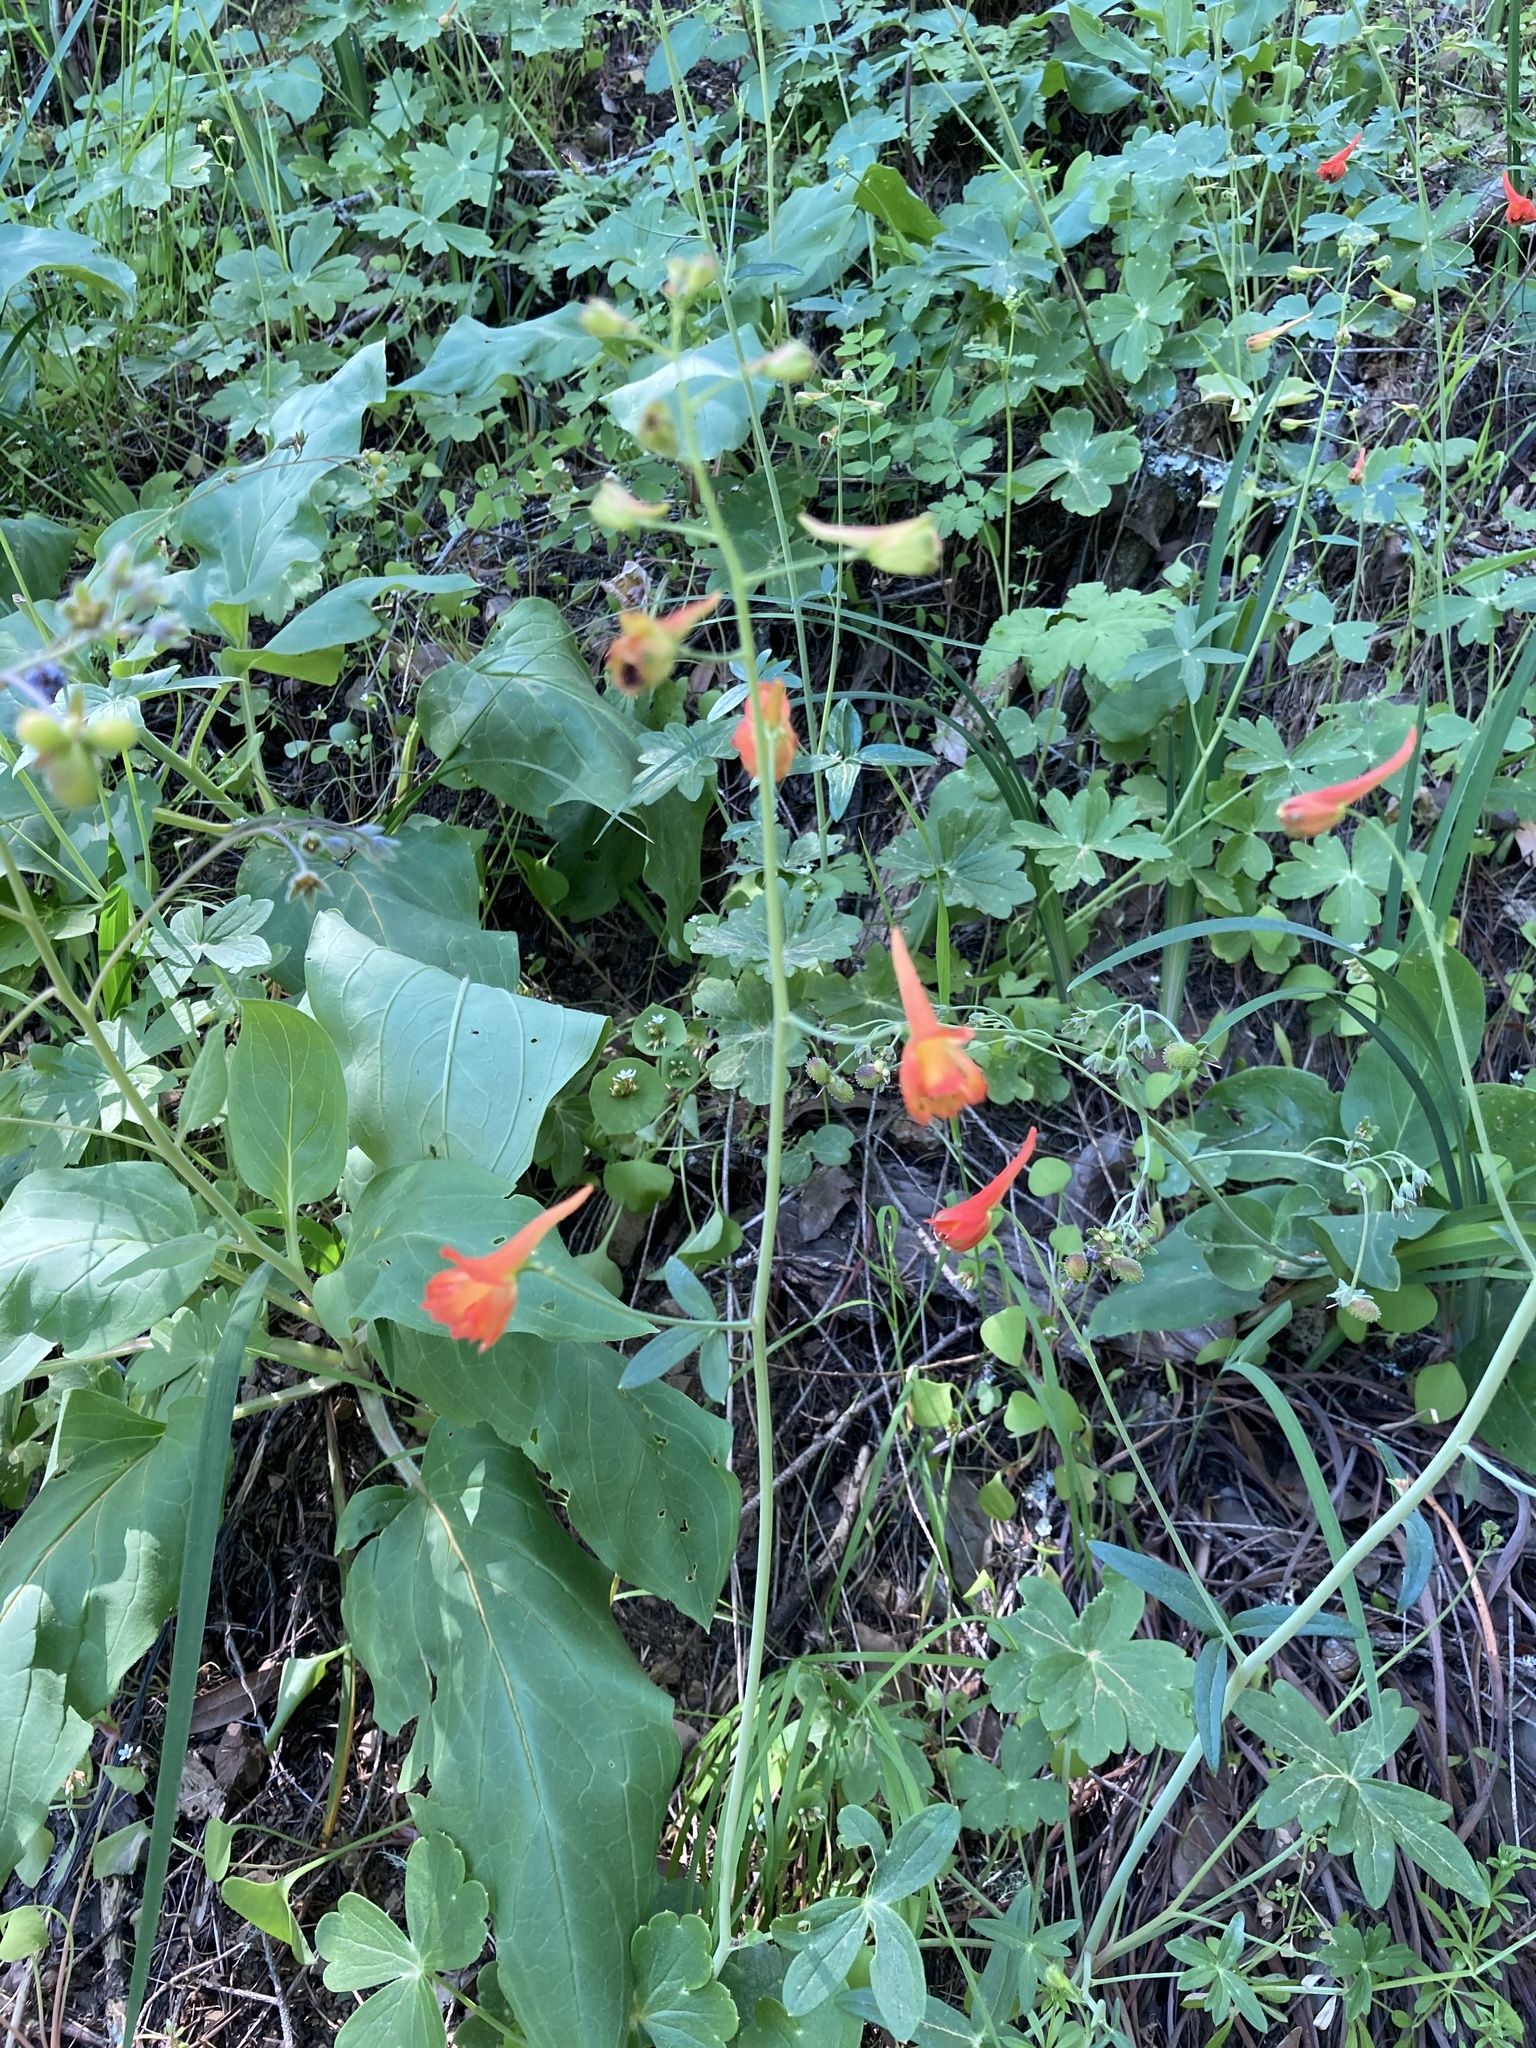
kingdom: Plantae
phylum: Tracheophyta
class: Magnoliopsida
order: Ranunculales
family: Ranunculaceae
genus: Delphinium
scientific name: Delphinium nudicaule
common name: Red larkspur
